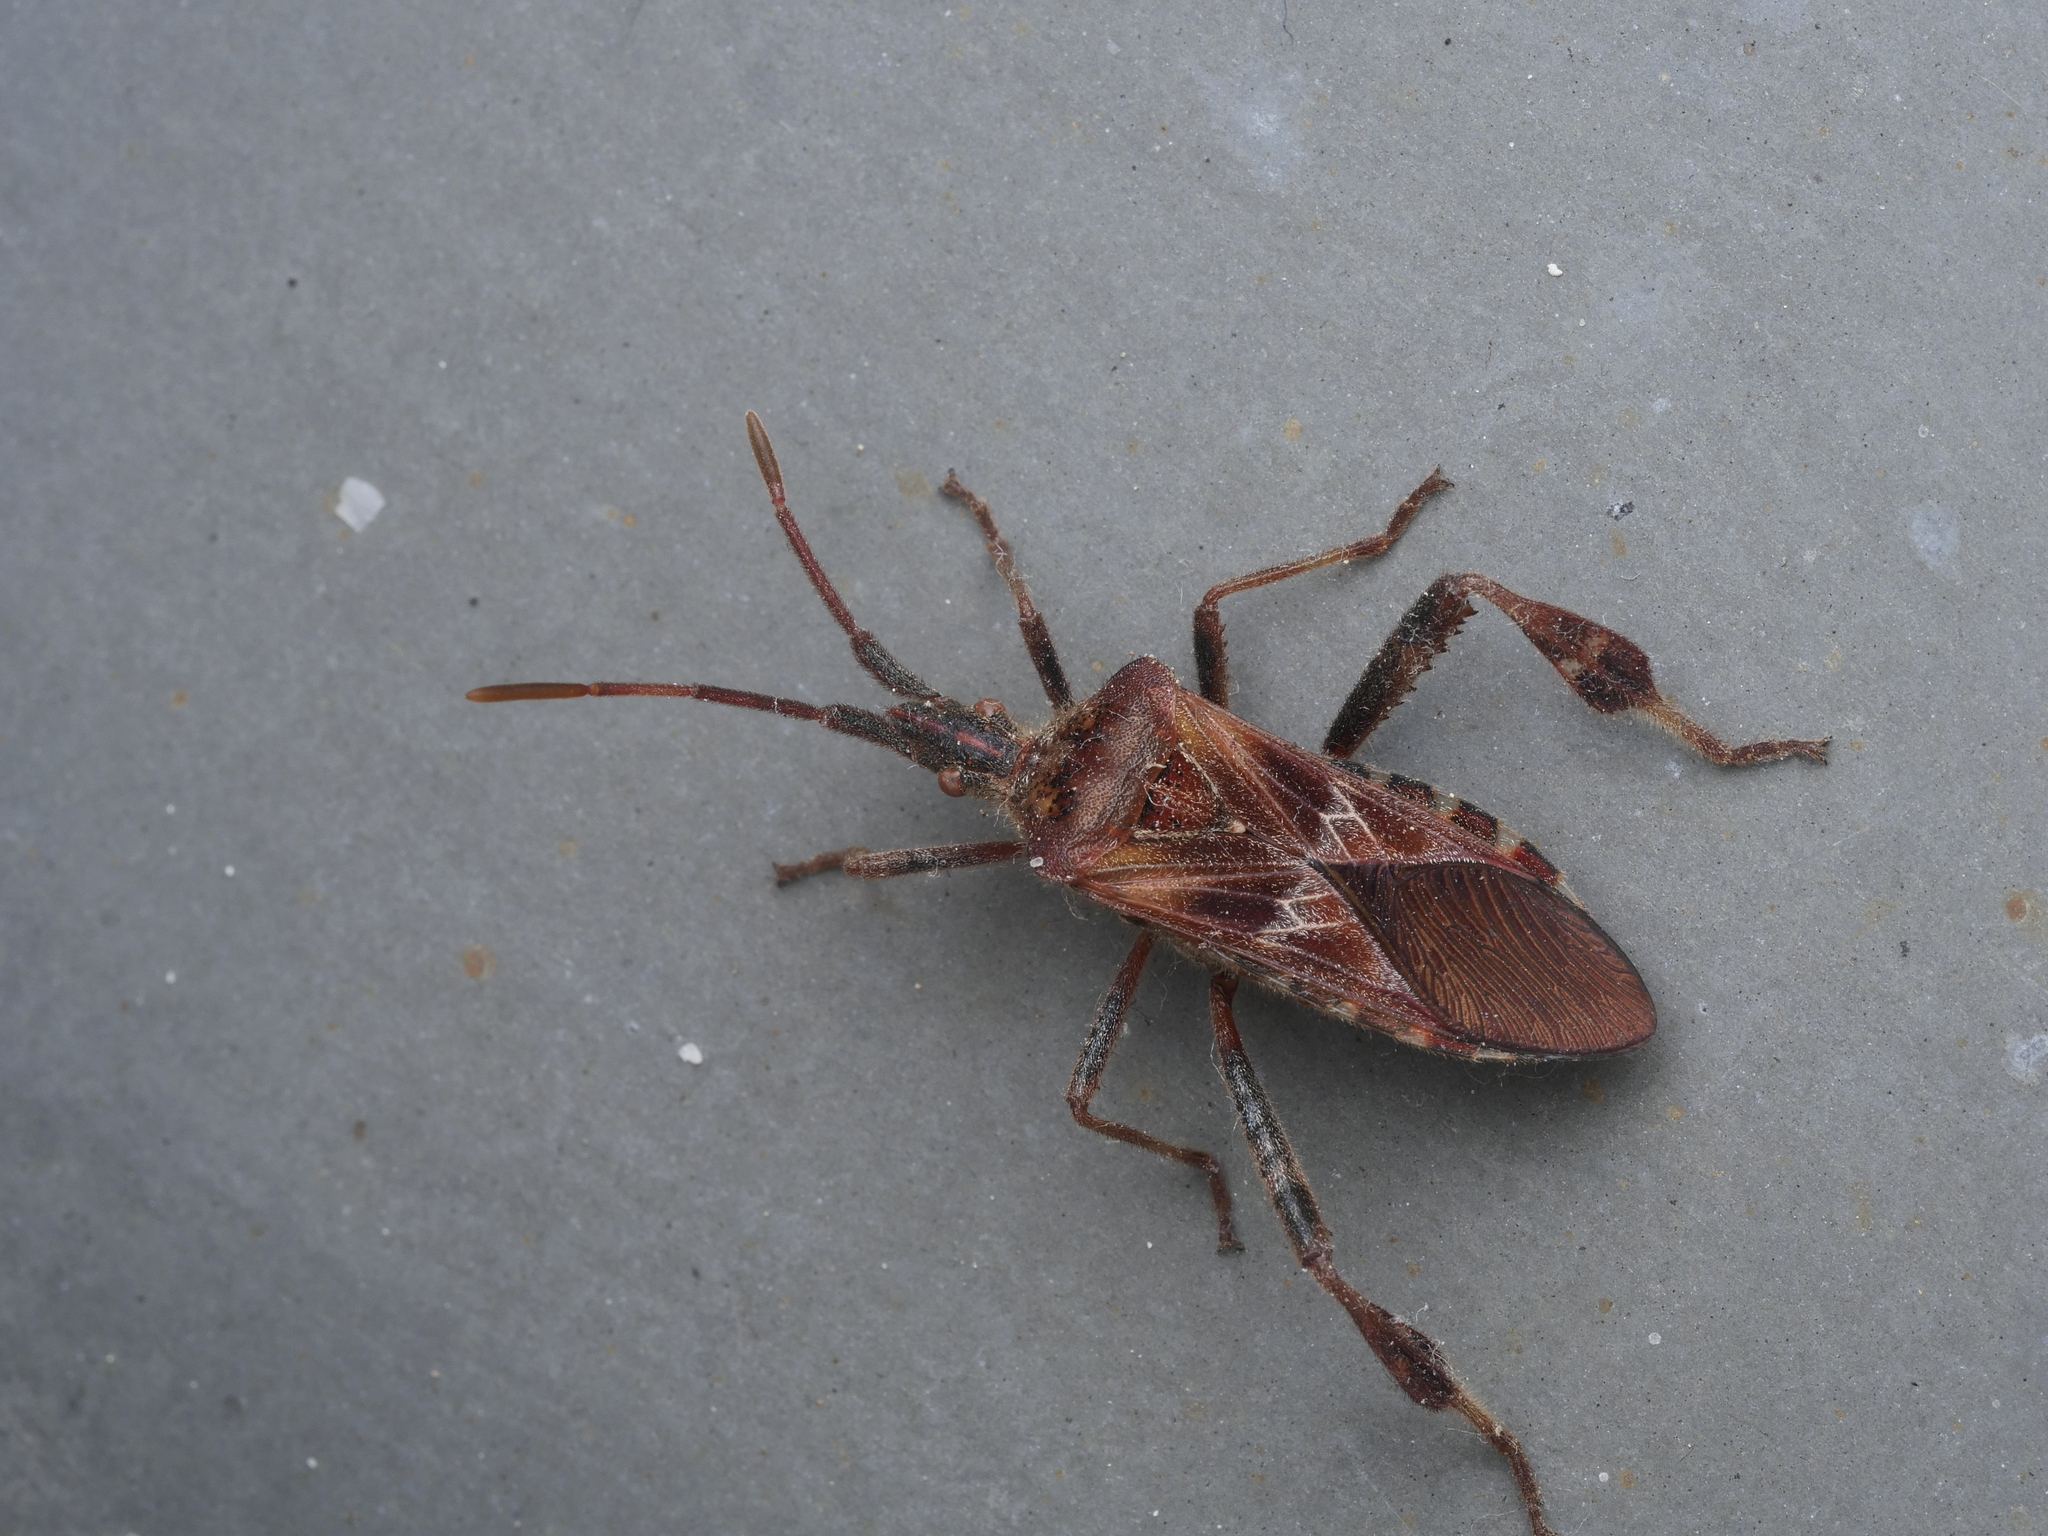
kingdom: Animalia
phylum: Arthropoda
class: Insecta
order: Hemiptera
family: Coreidae
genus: Leptoglossus
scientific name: Leptoglossus occidentalis
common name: Western conifer-seed bug
